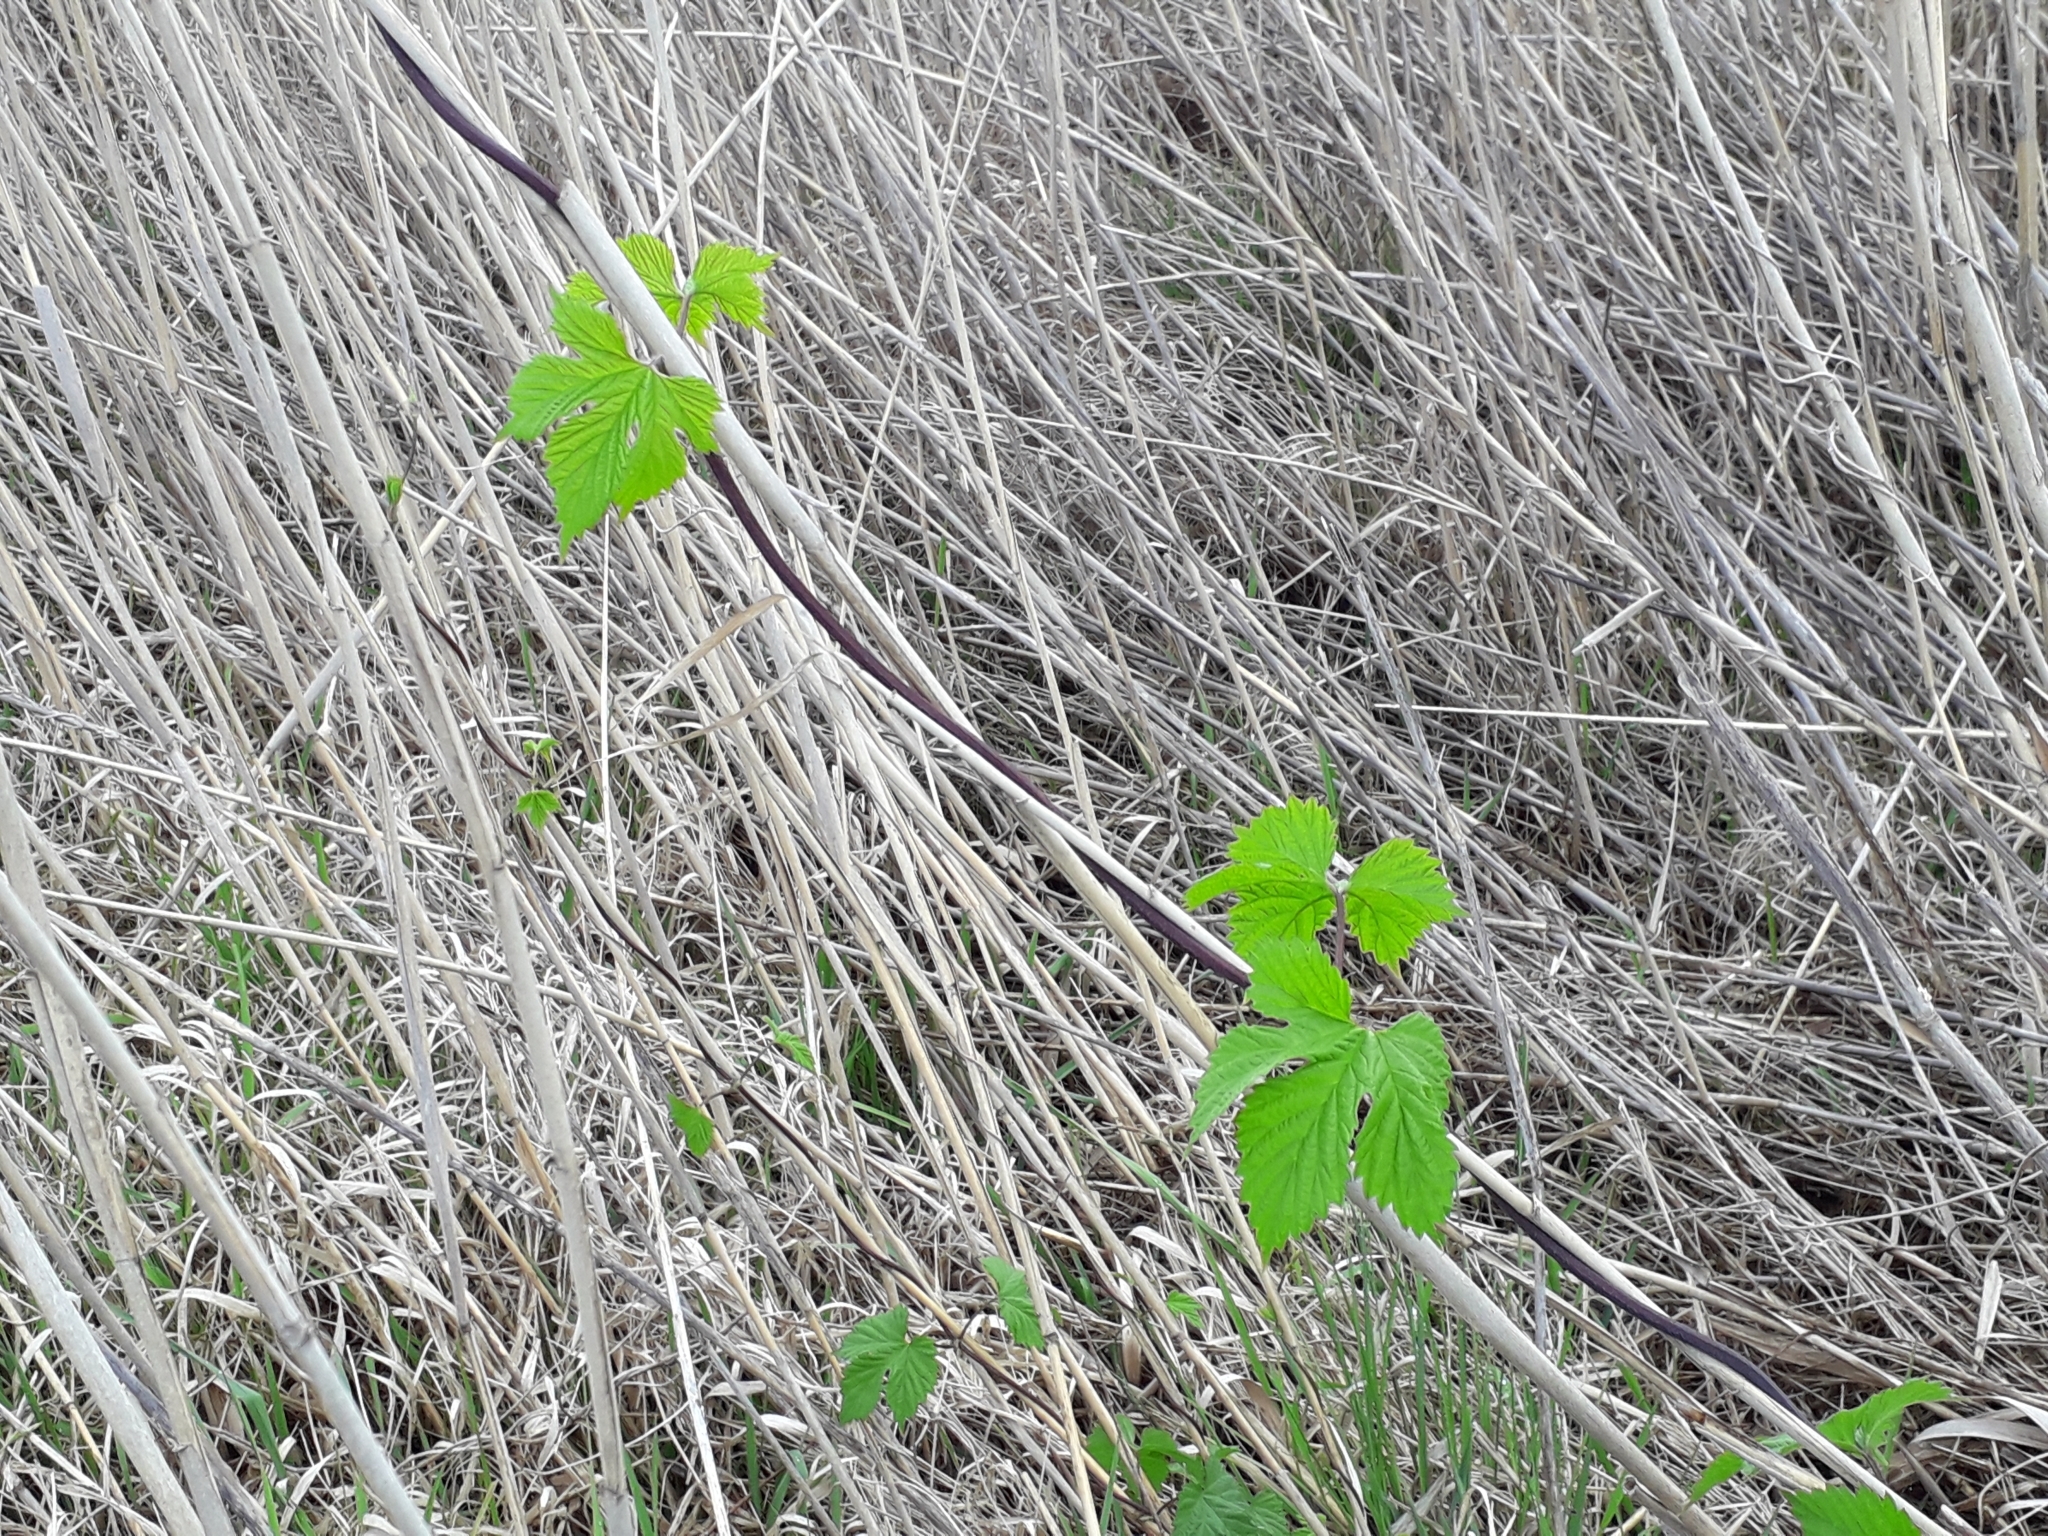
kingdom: Plantae
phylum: Tracheophyta
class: Magnoliopsida
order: Rosales
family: Cannabaceae
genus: Humulus
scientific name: Humulus lupulus
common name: Hop
